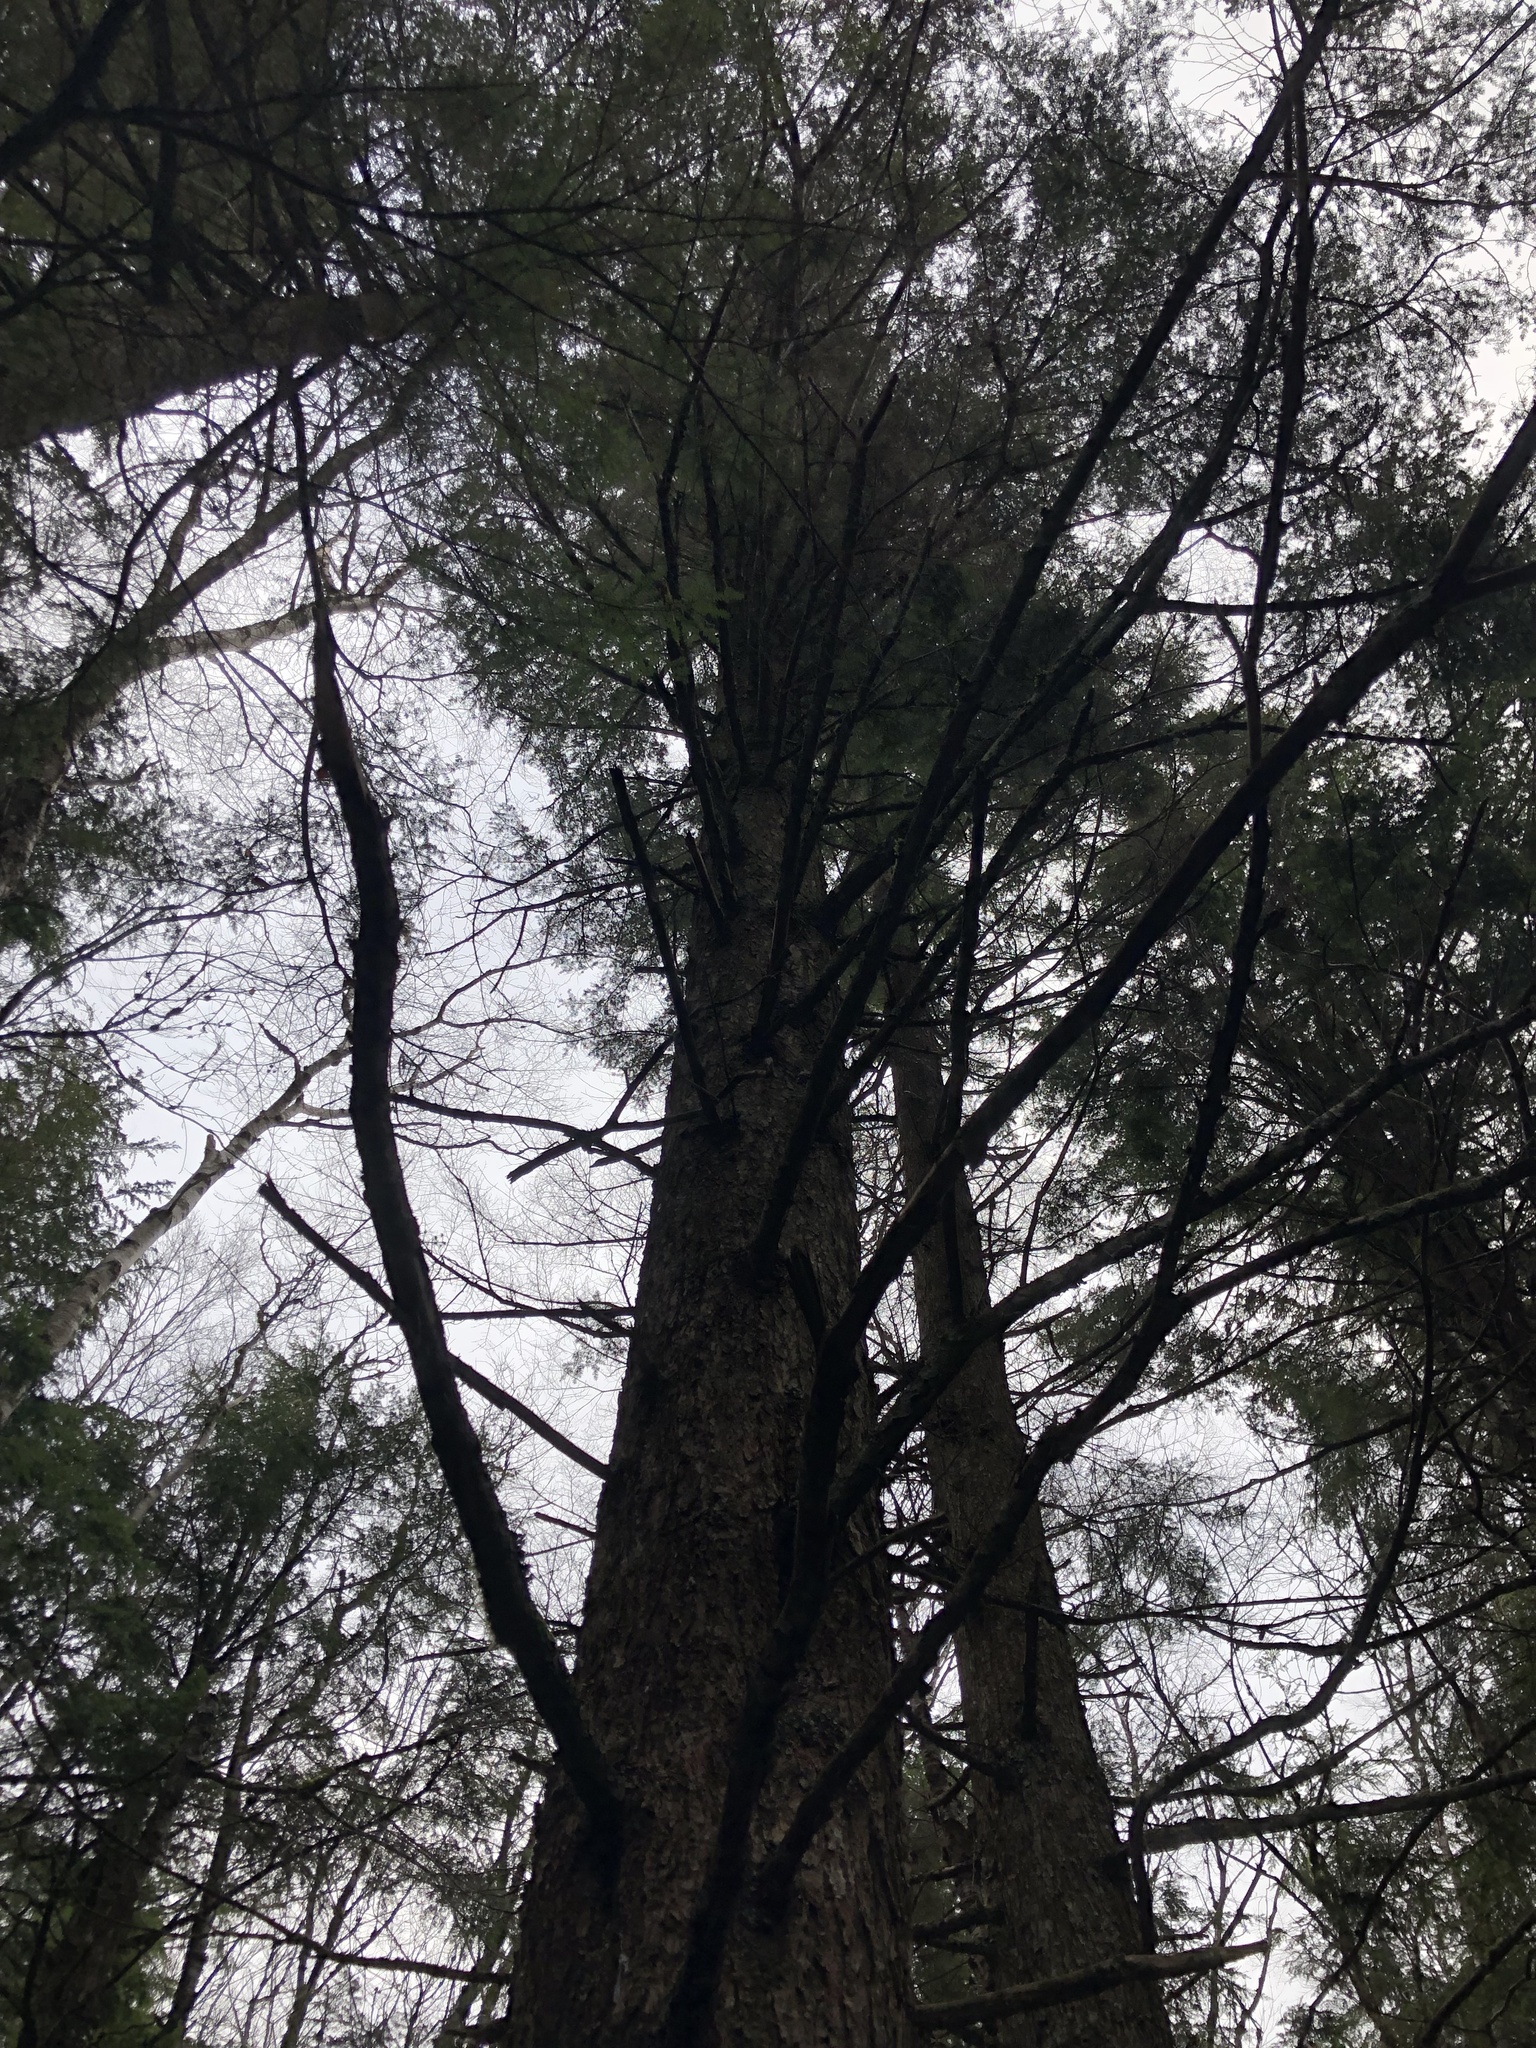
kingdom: Plantae
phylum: Tracheophyta
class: Pinopsida
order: Pinales
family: Pinaceae
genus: Tsuga
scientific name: Tsuga heterophylla
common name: Western hemlock
